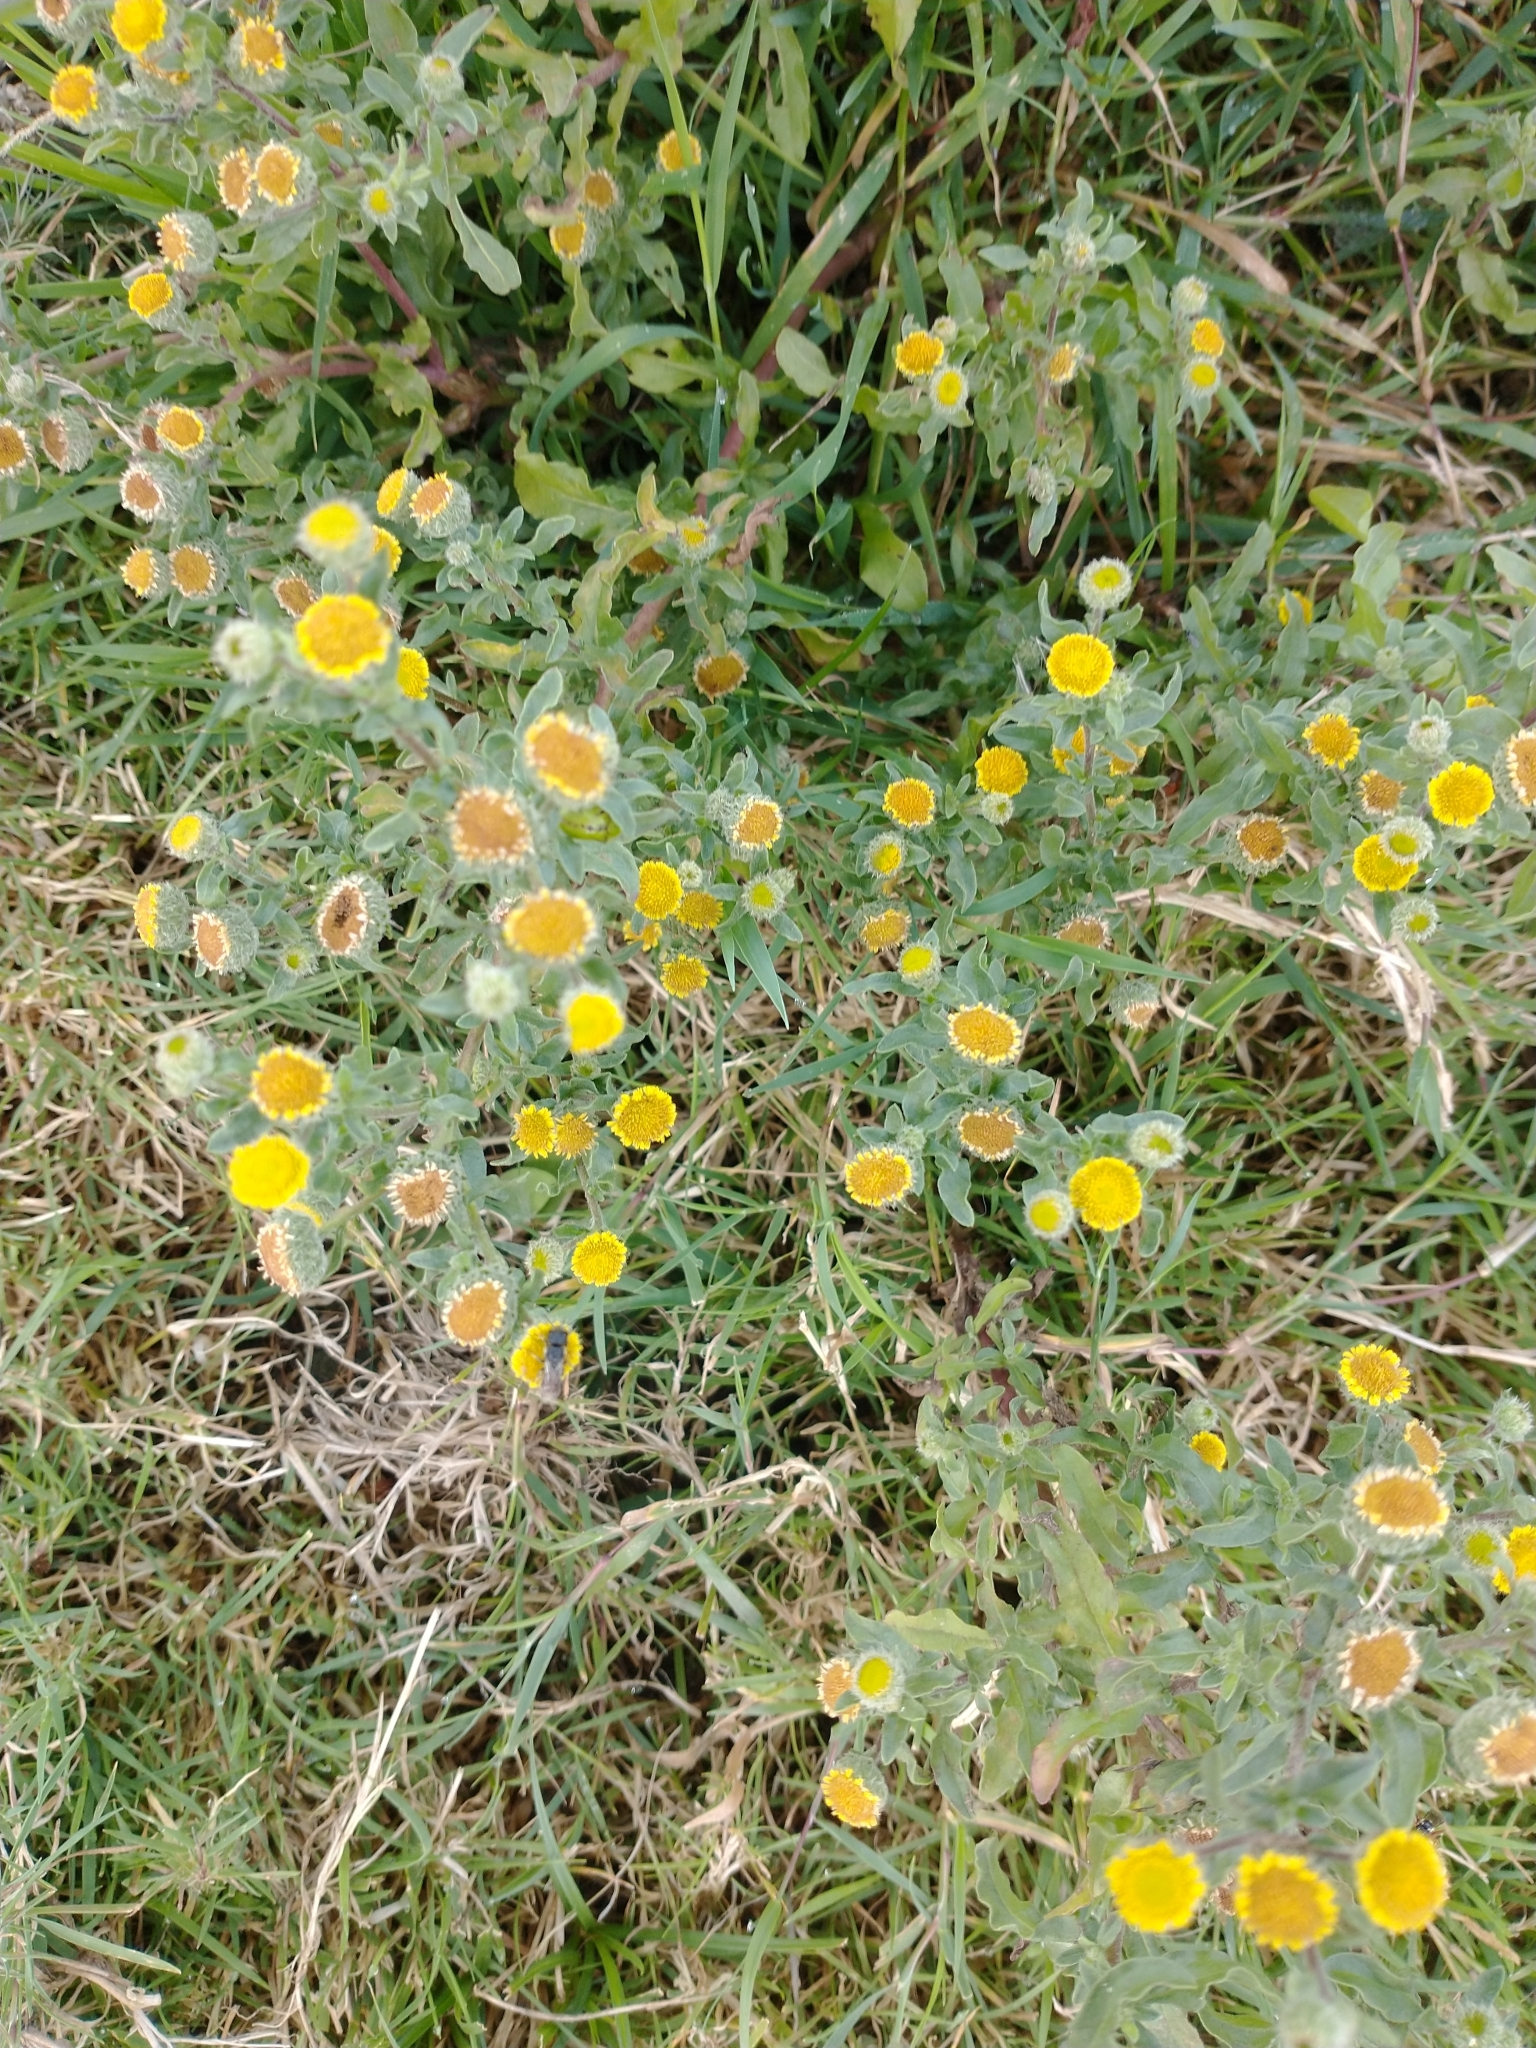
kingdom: Plantae
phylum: Tracheophyta
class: Magnoliopsida
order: Asterales
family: Asteraceae
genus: Pulicaria
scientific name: Pulicaria vulgaris
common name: Small fleabane
